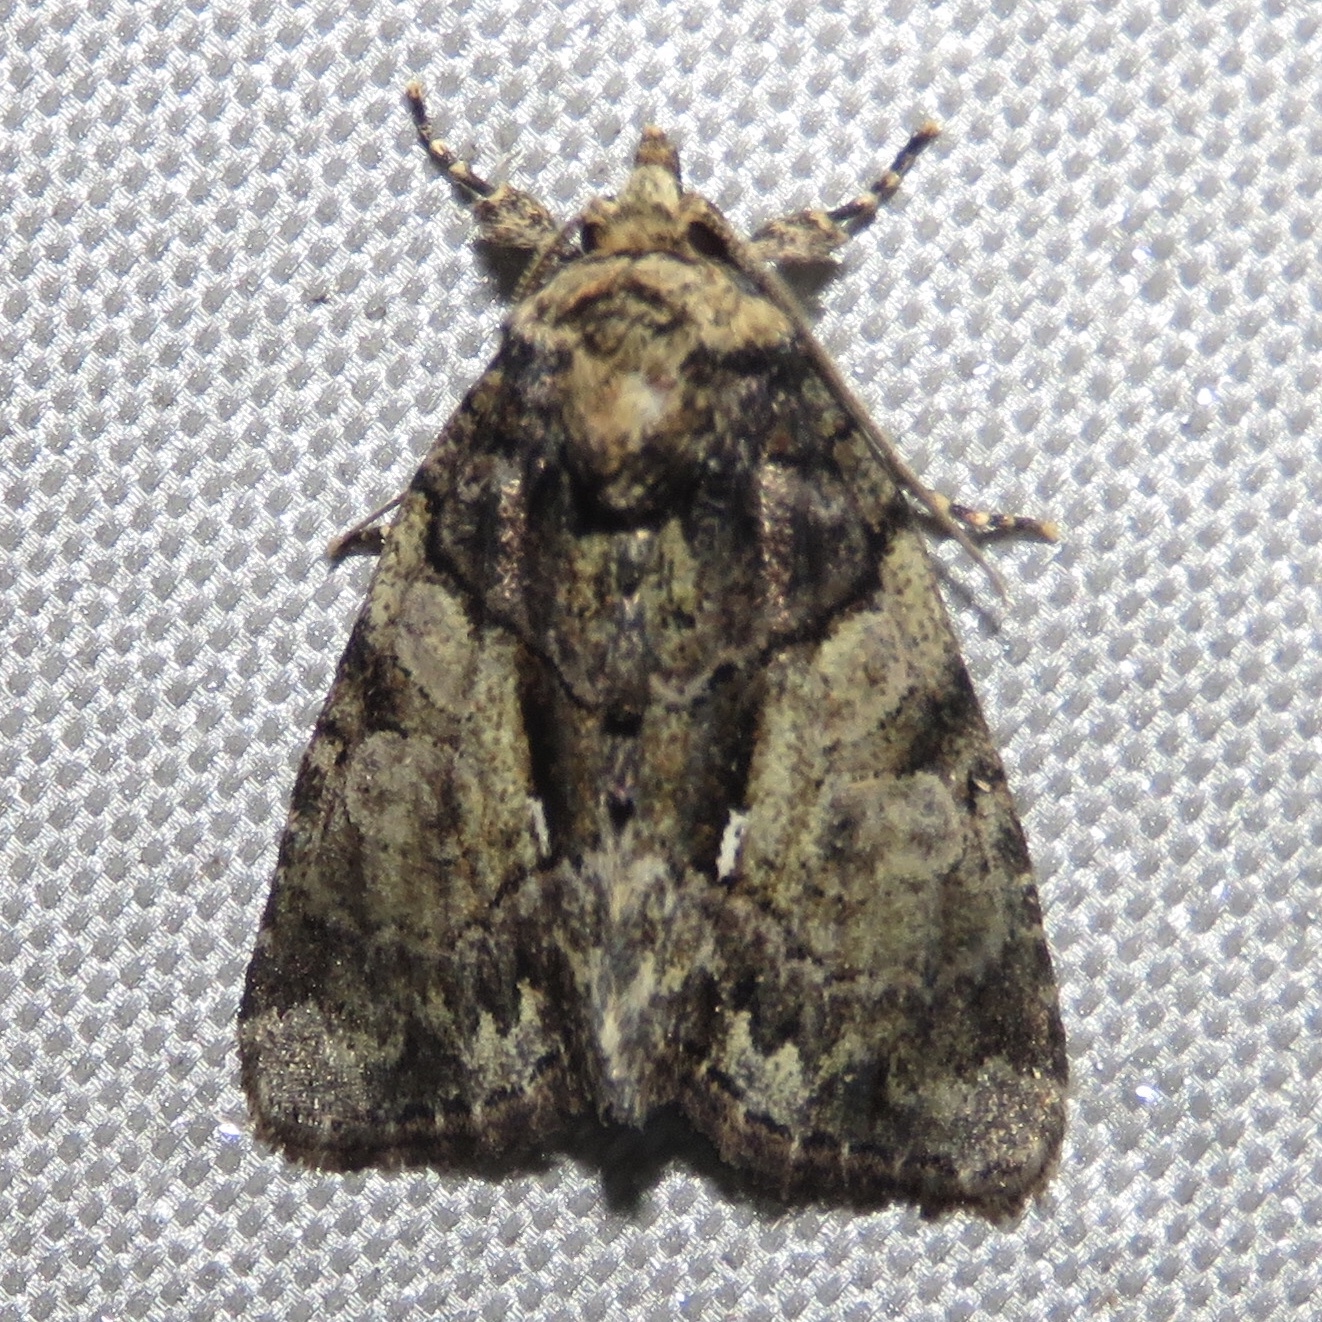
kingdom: Animalia
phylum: Arthropoda
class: Insecta
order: Lepidoptera
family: Noctuidae
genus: Chytonix
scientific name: Chytonix palliatricula
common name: Cloaked marvel
